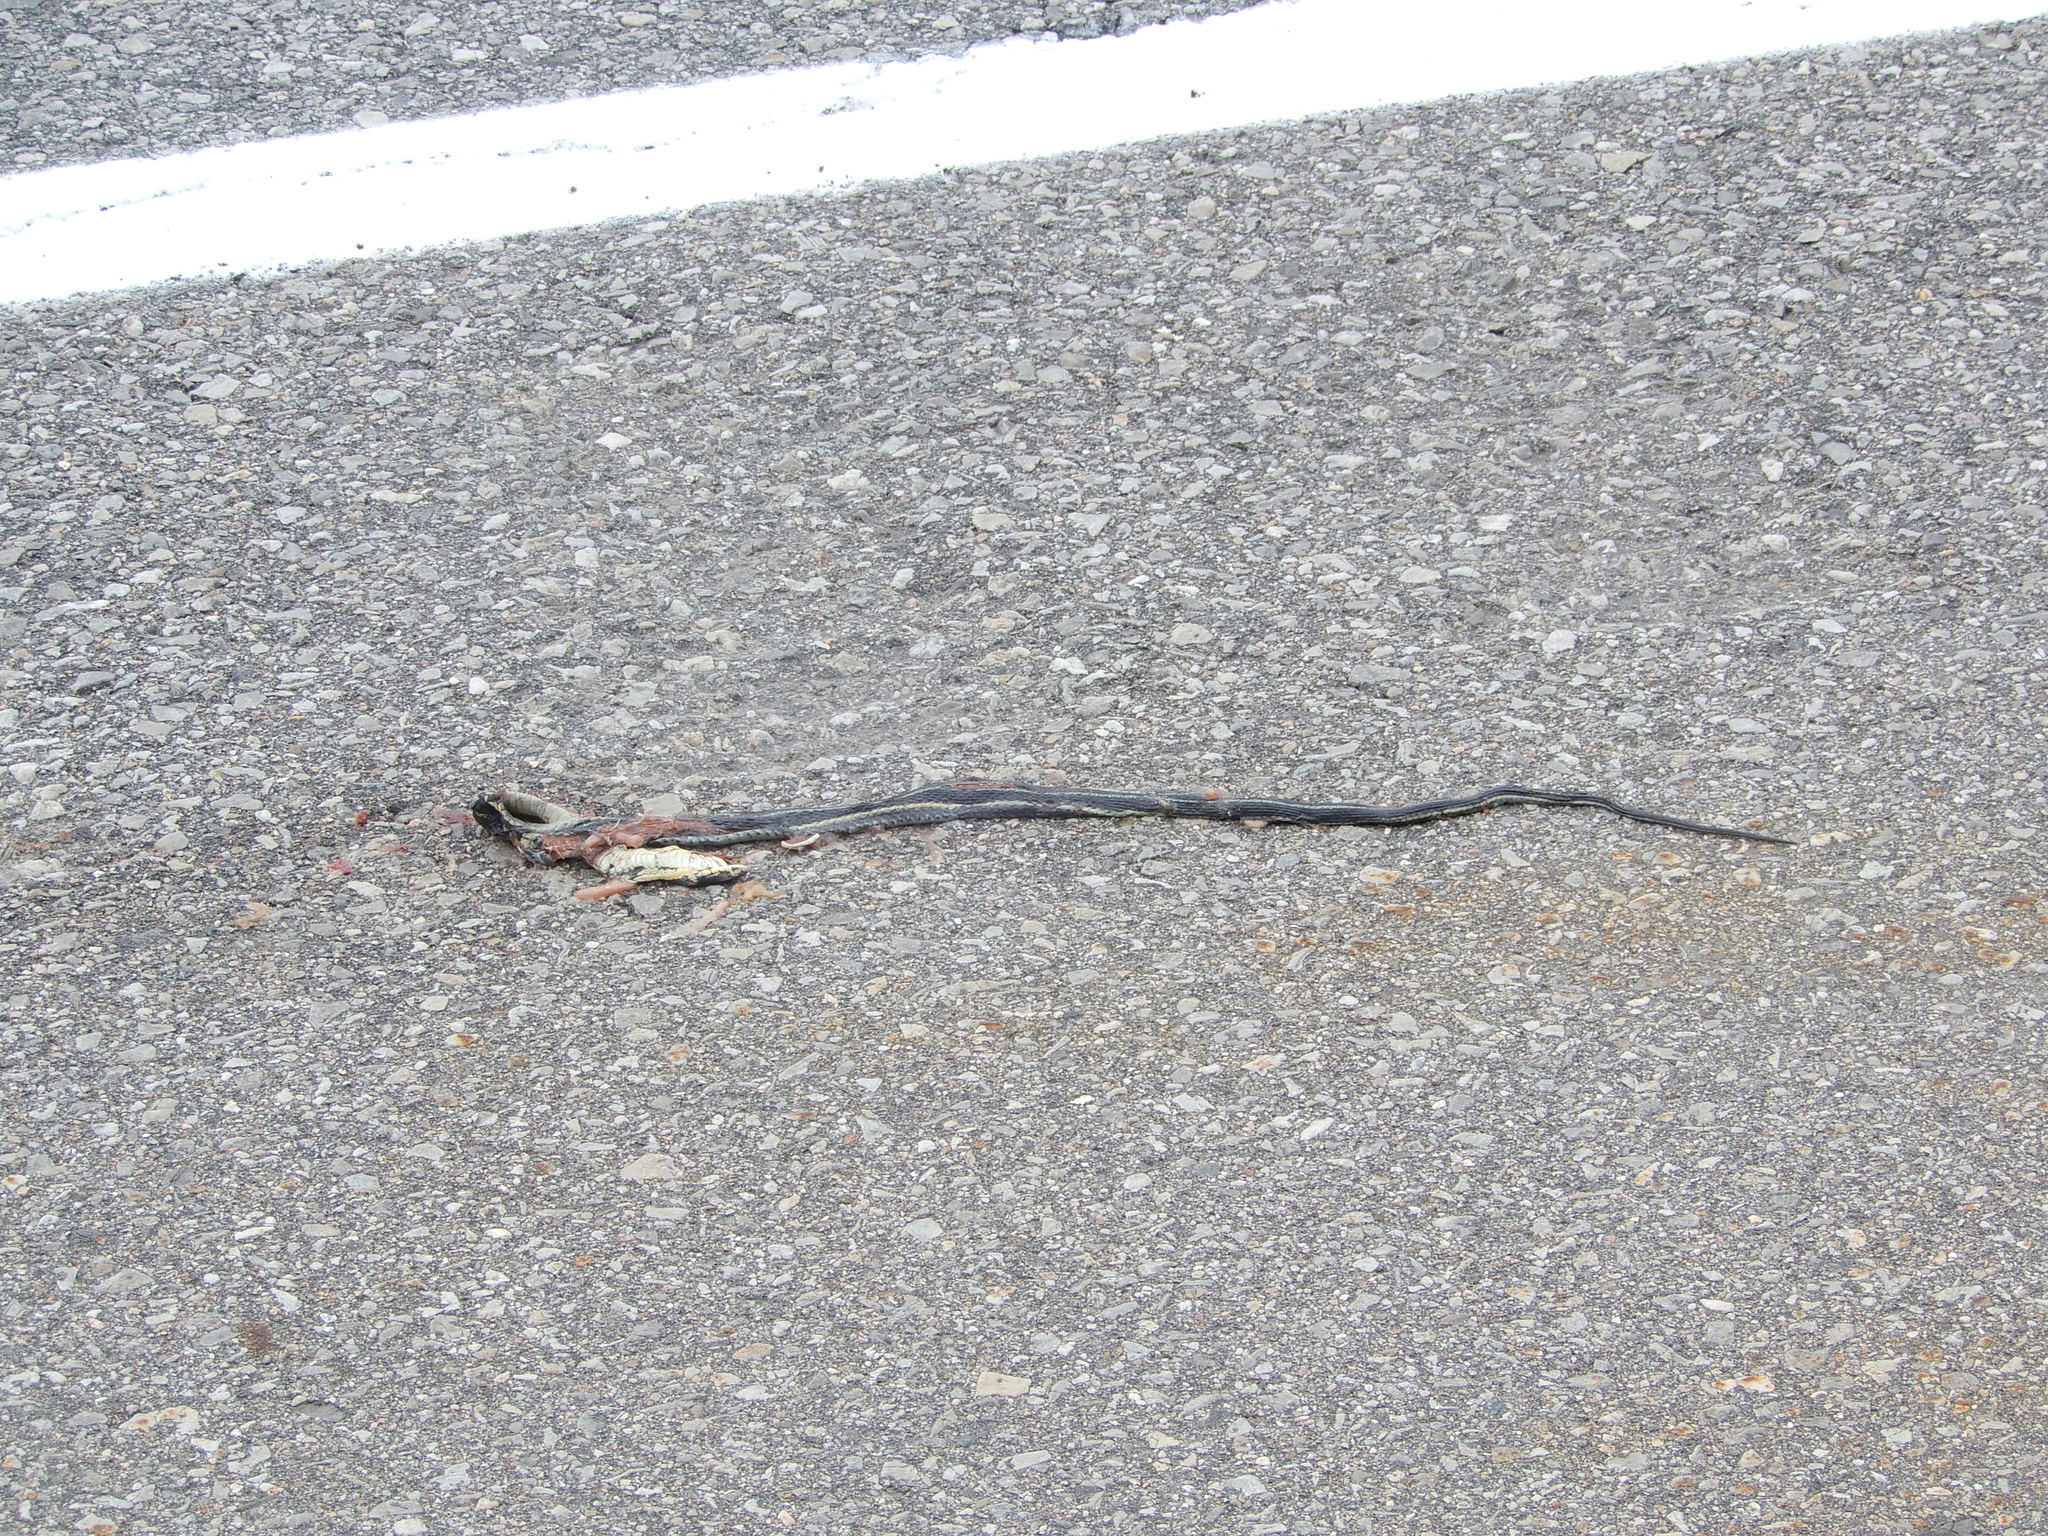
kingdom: Animalia
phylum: Chordata
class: Squamata
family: Colubridae
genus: Thamnophis
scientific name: Thamnophis sirtalis
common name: Common garter snake
